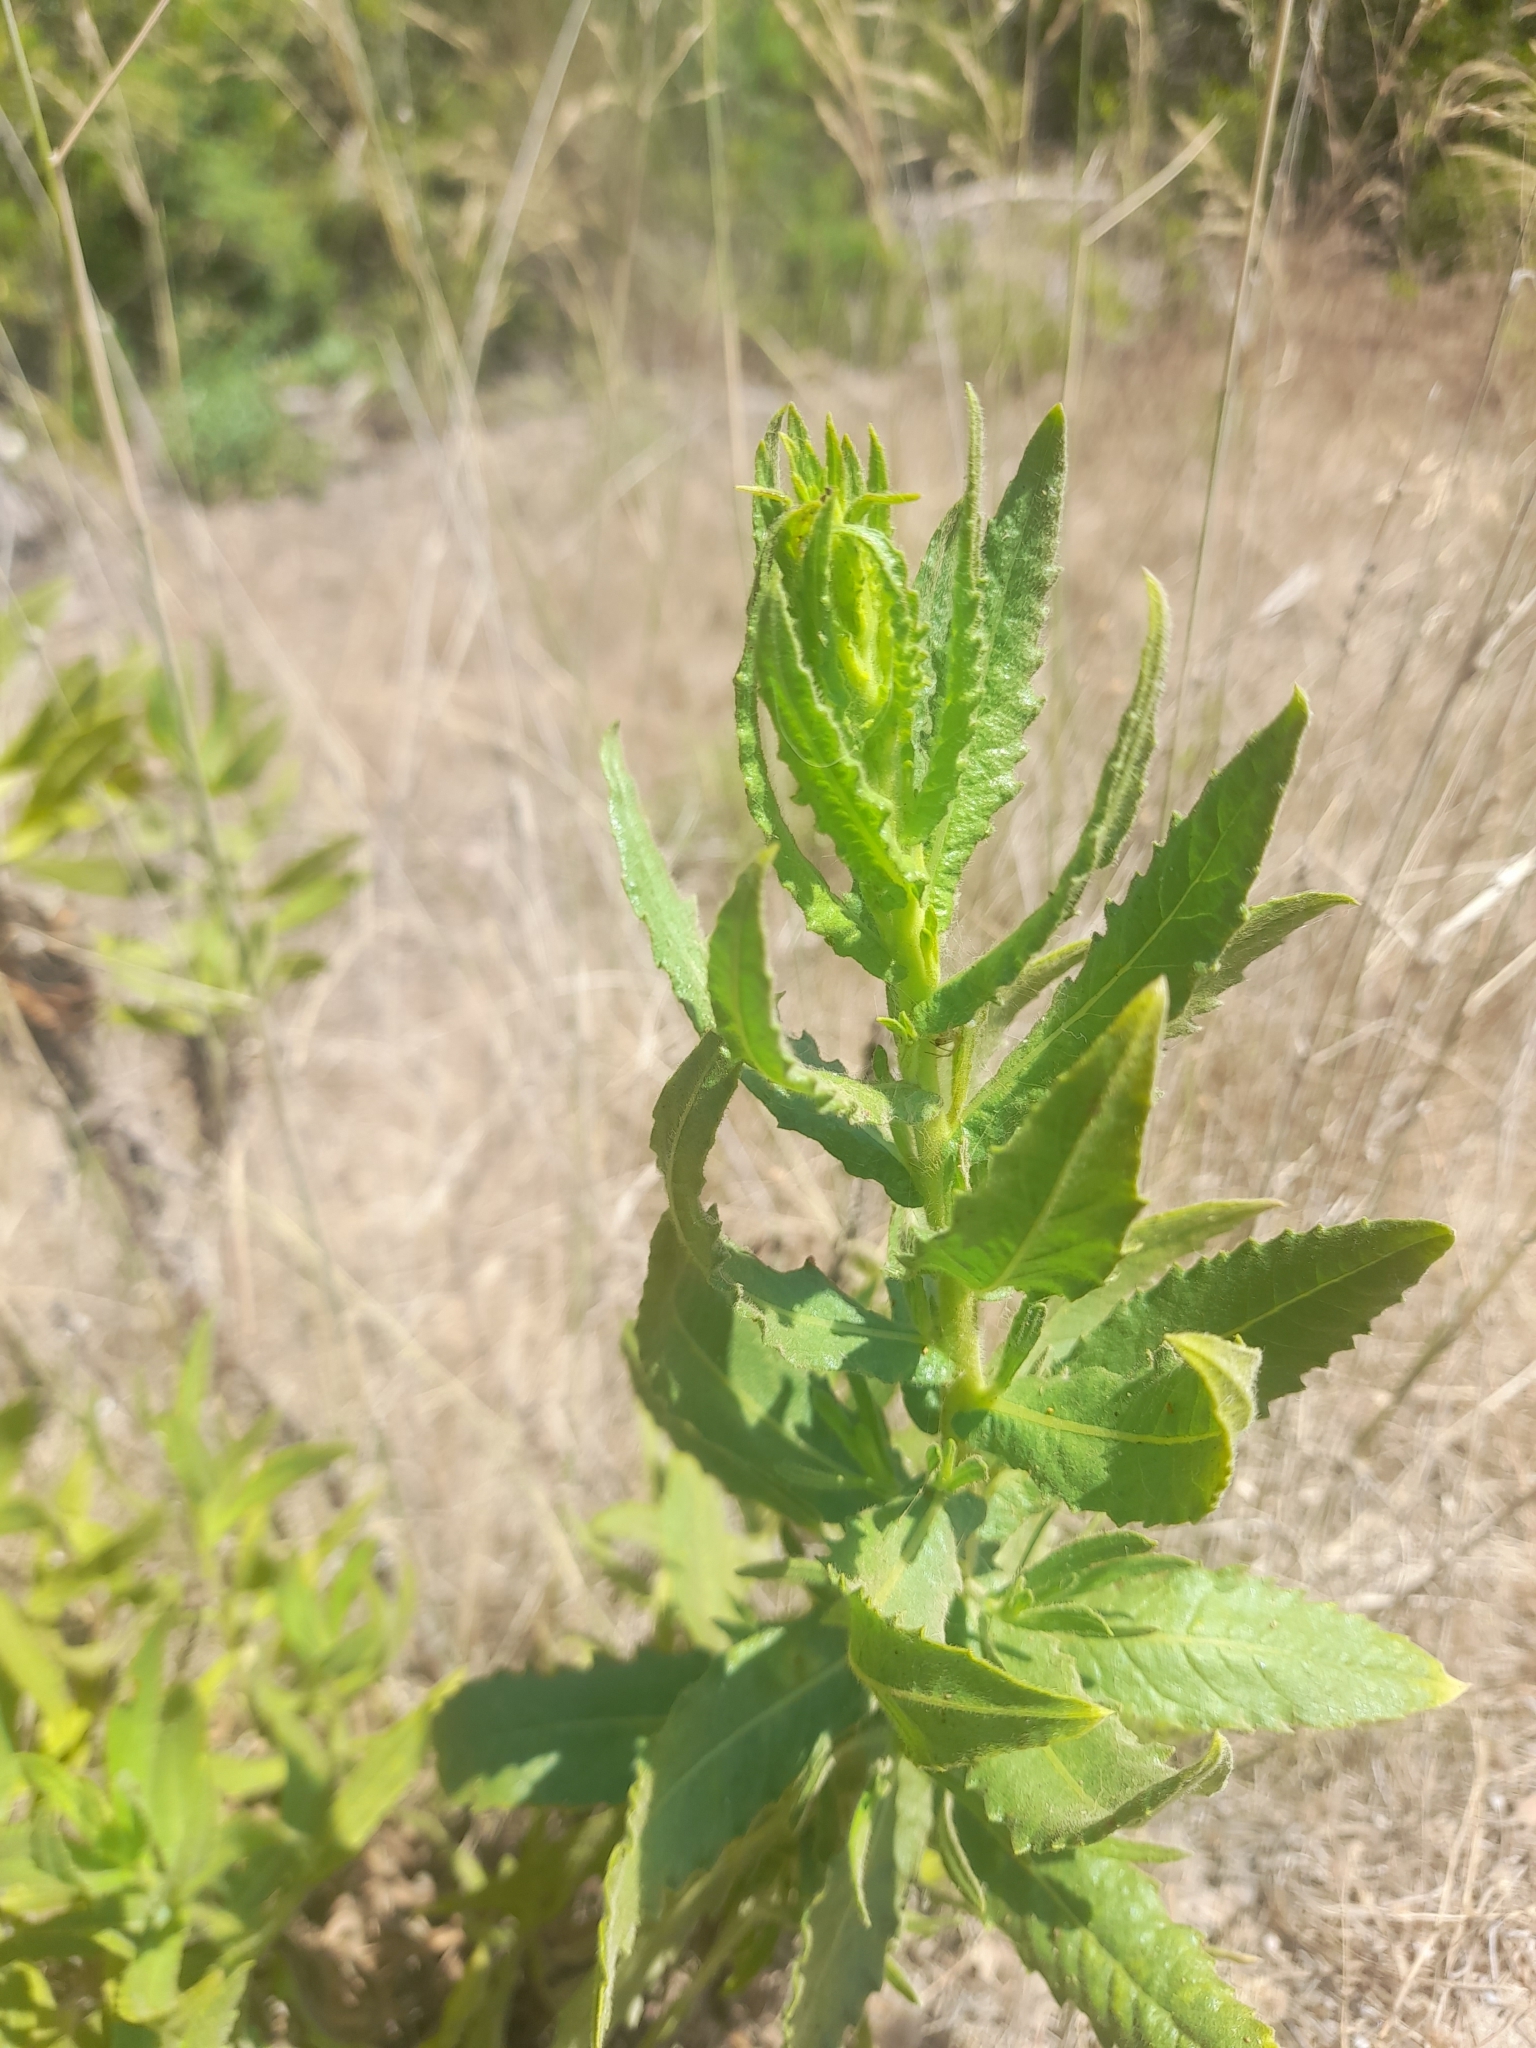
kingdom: Plantae
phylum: Tracheophyta
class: Magnoliopsida
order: Asterales
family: Asteraceae
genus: Dittrichia
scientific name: Dittrichia viscosa
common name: Woody fleabane
